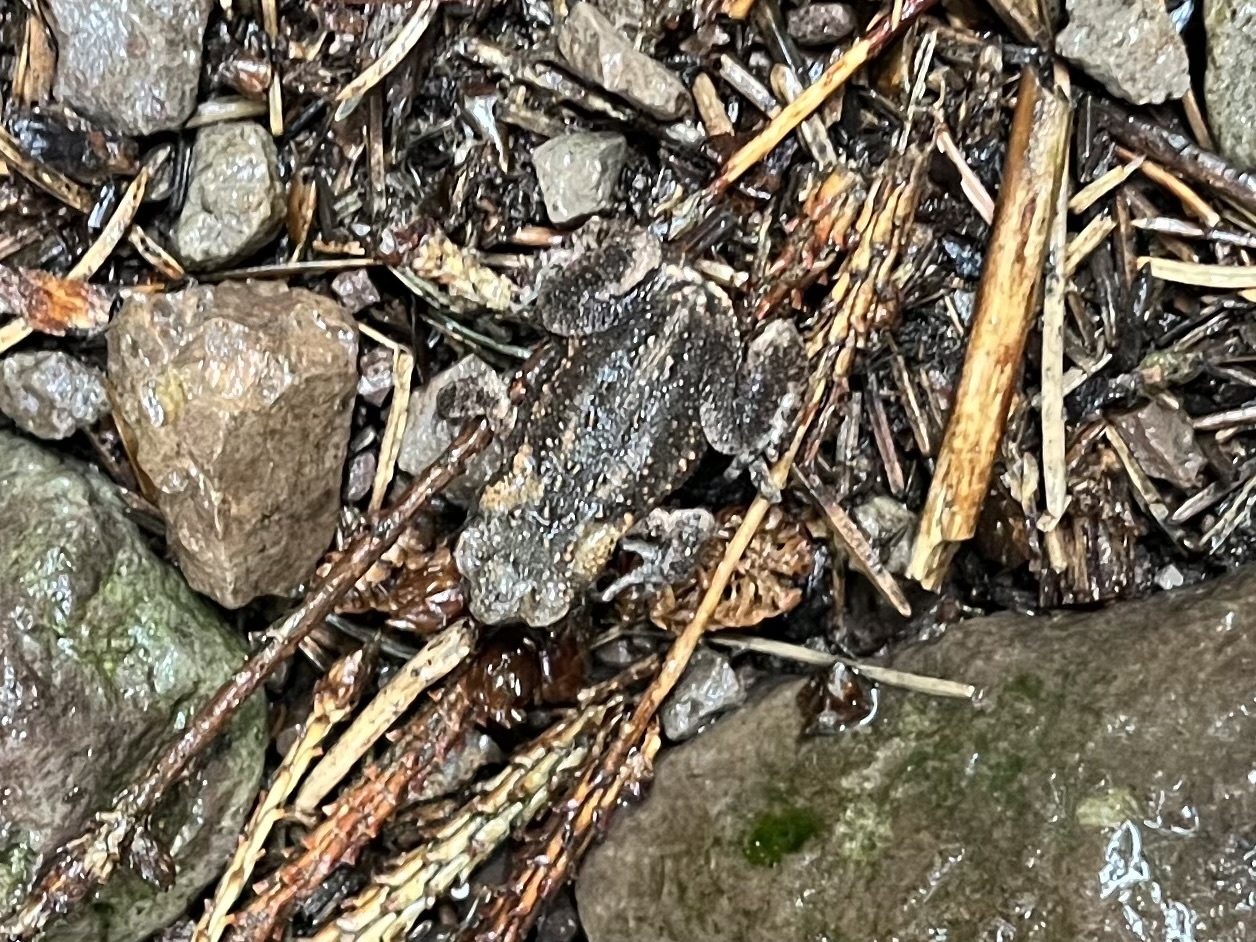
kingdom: Animalia
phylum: Chordata
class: Amphibia
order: Anura
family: Bufonidae
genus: Bufo
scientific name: Bufo bufo
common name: Common toad
